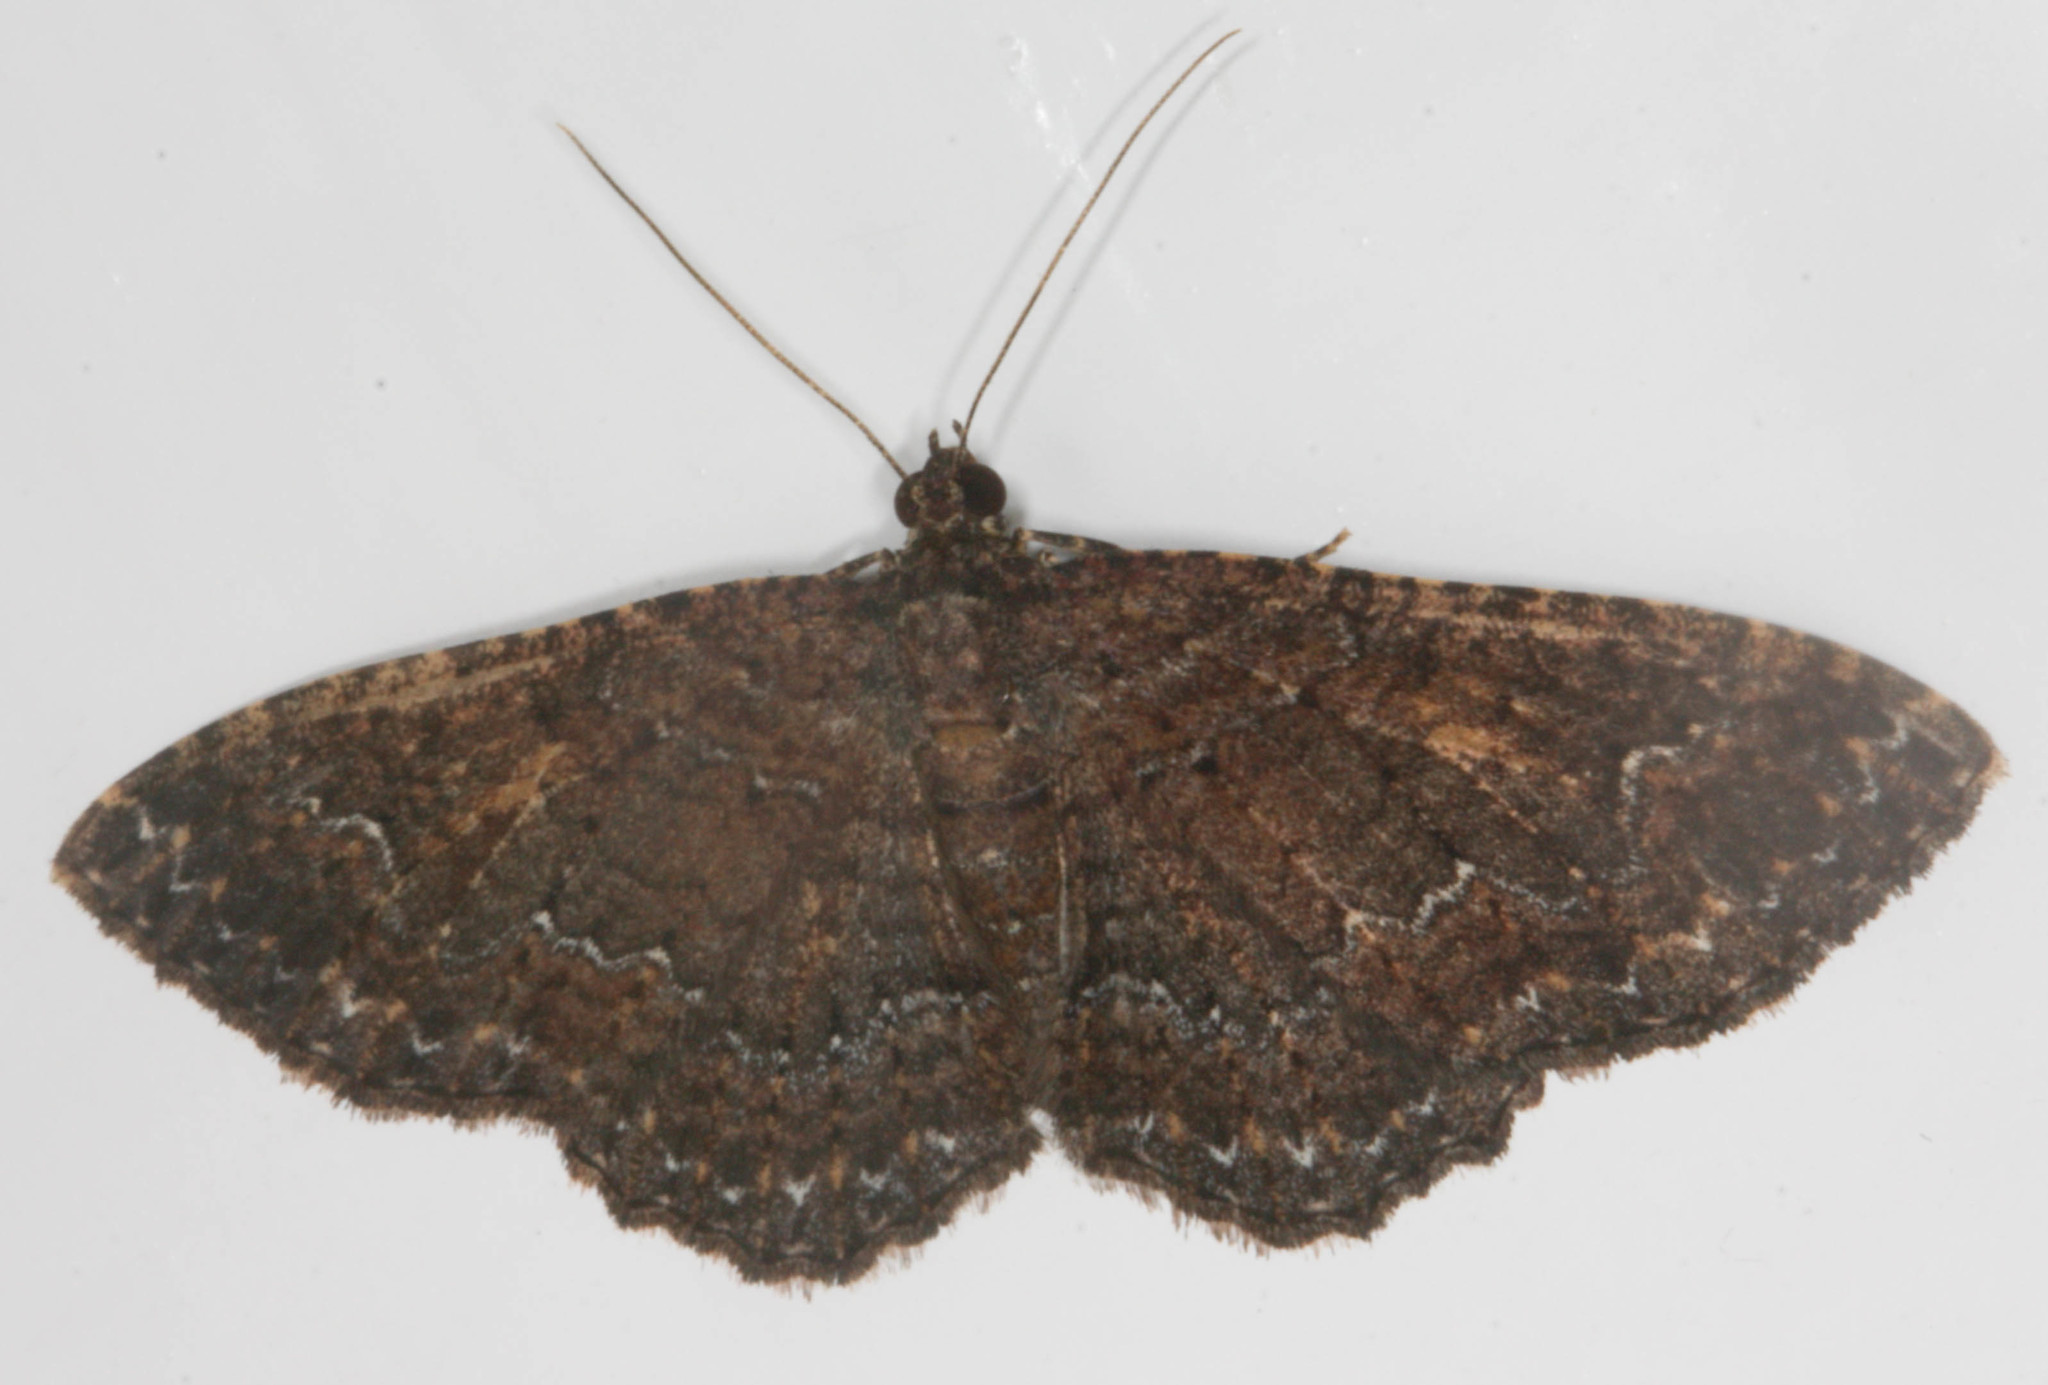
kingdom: Animalia
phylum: Arthropoda
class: Insecta
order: Lepidoptera
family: Geometridae
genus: Disclisioprocta
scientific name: Disclisioprocta stellata
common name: Somber carpet
